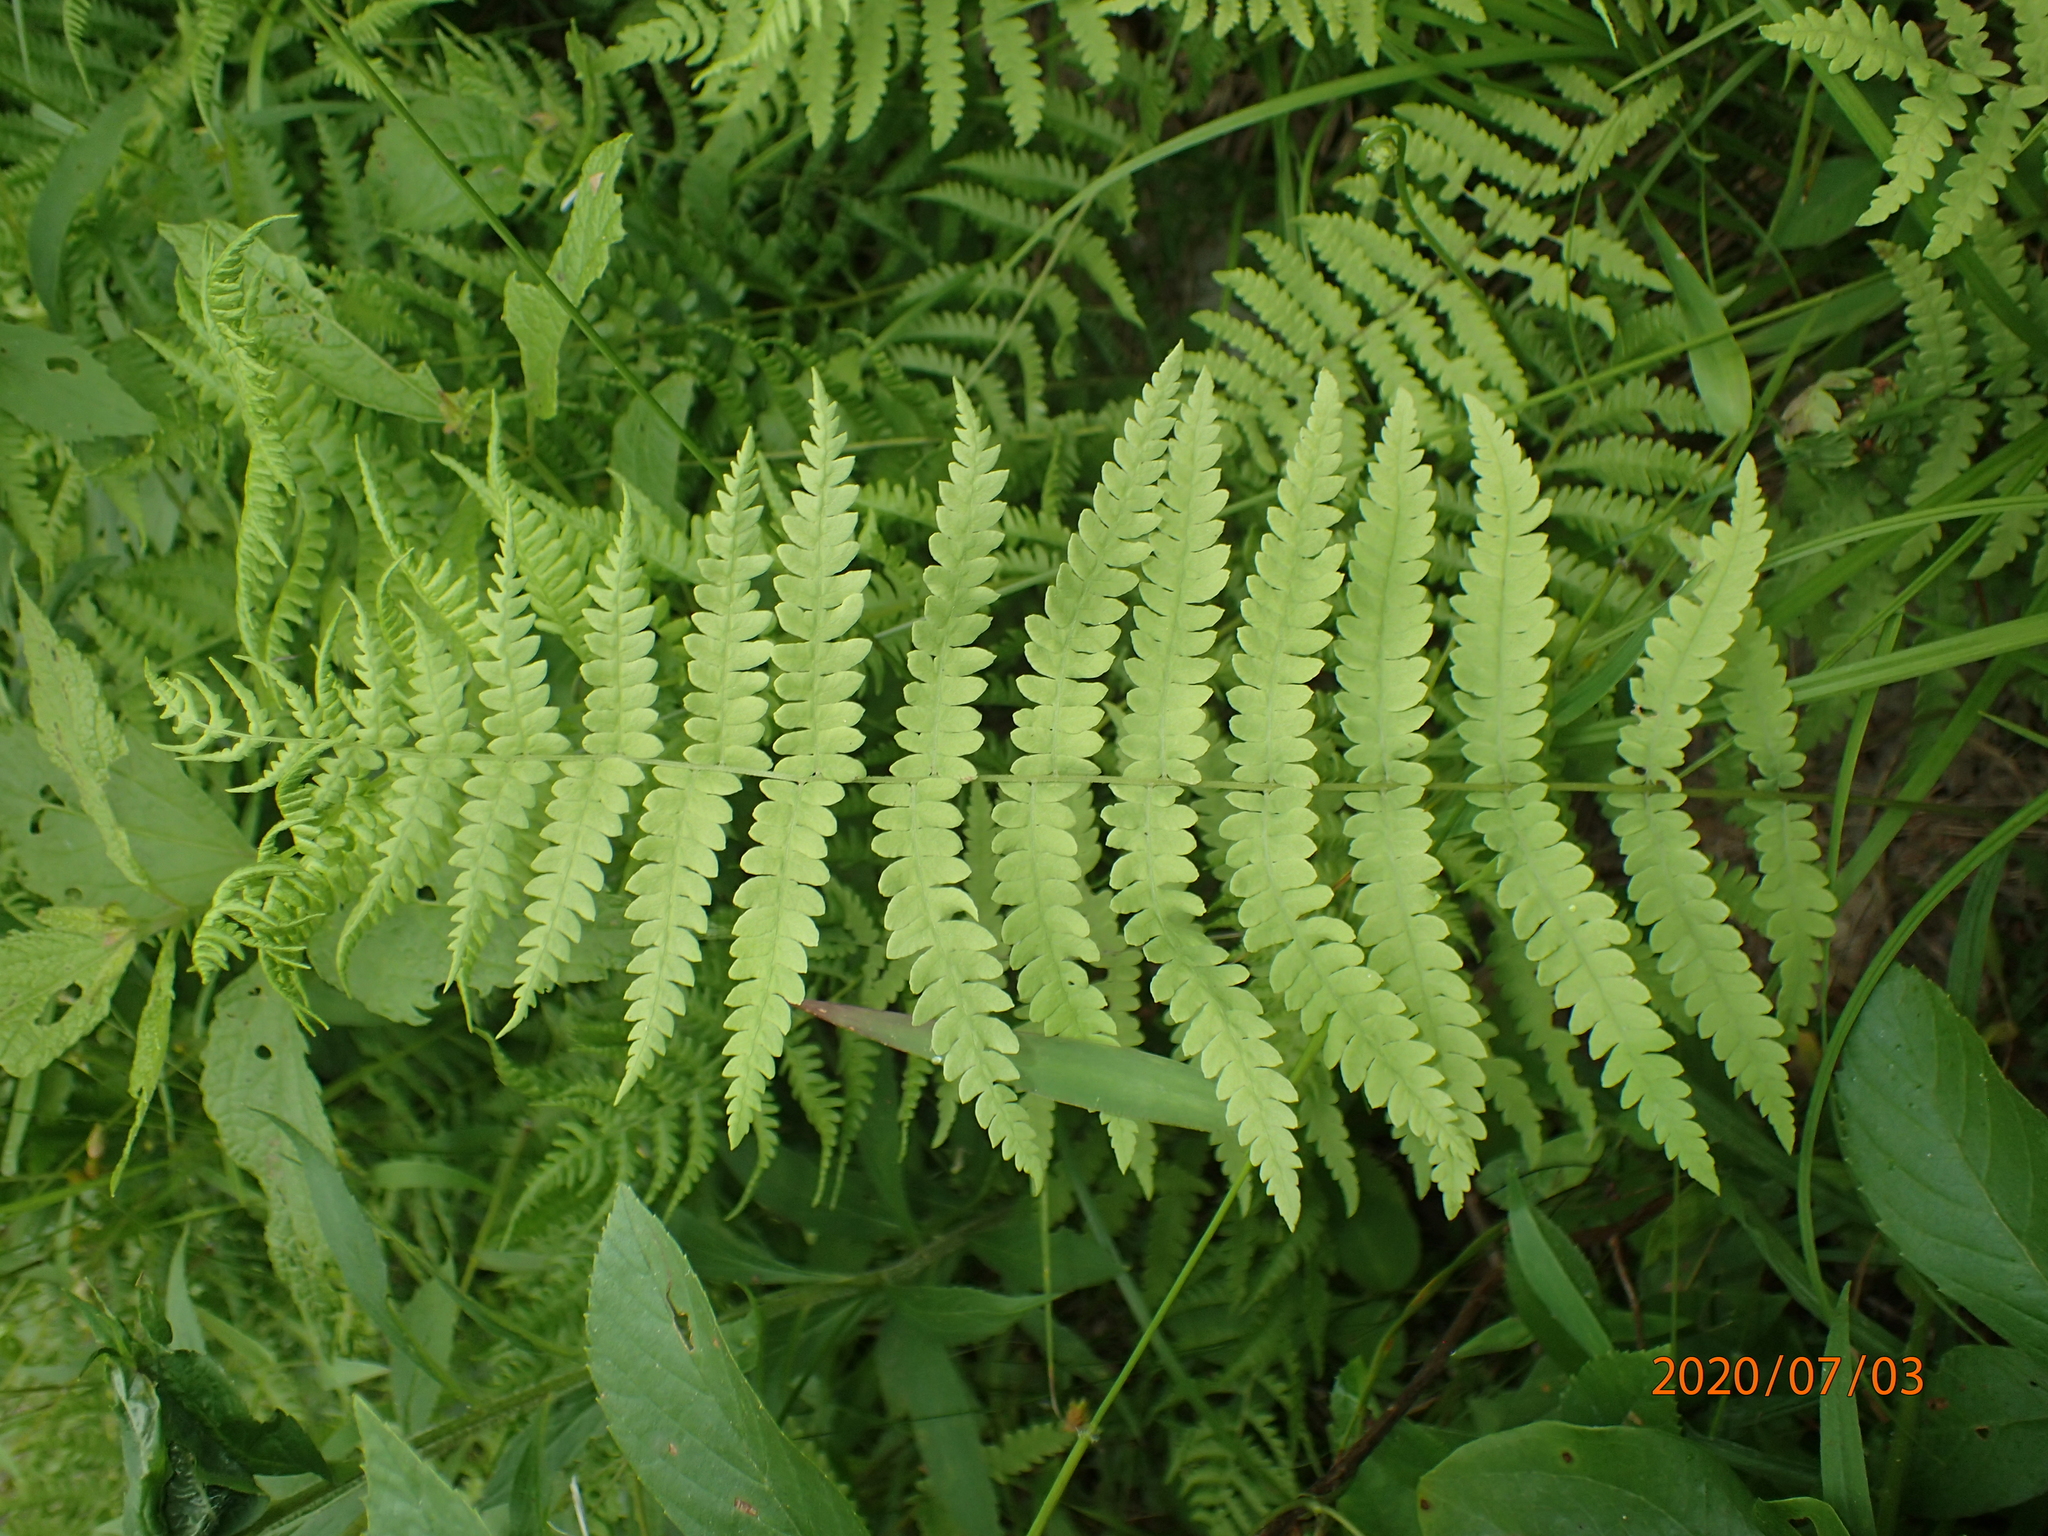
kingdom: Plantae
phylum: Tracheophyta
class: Polypodiopsida
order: Polypodiales
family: Thelypteridaceae
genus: Thelypteris
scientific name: Thelypteris palustris
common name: Marsh fern
